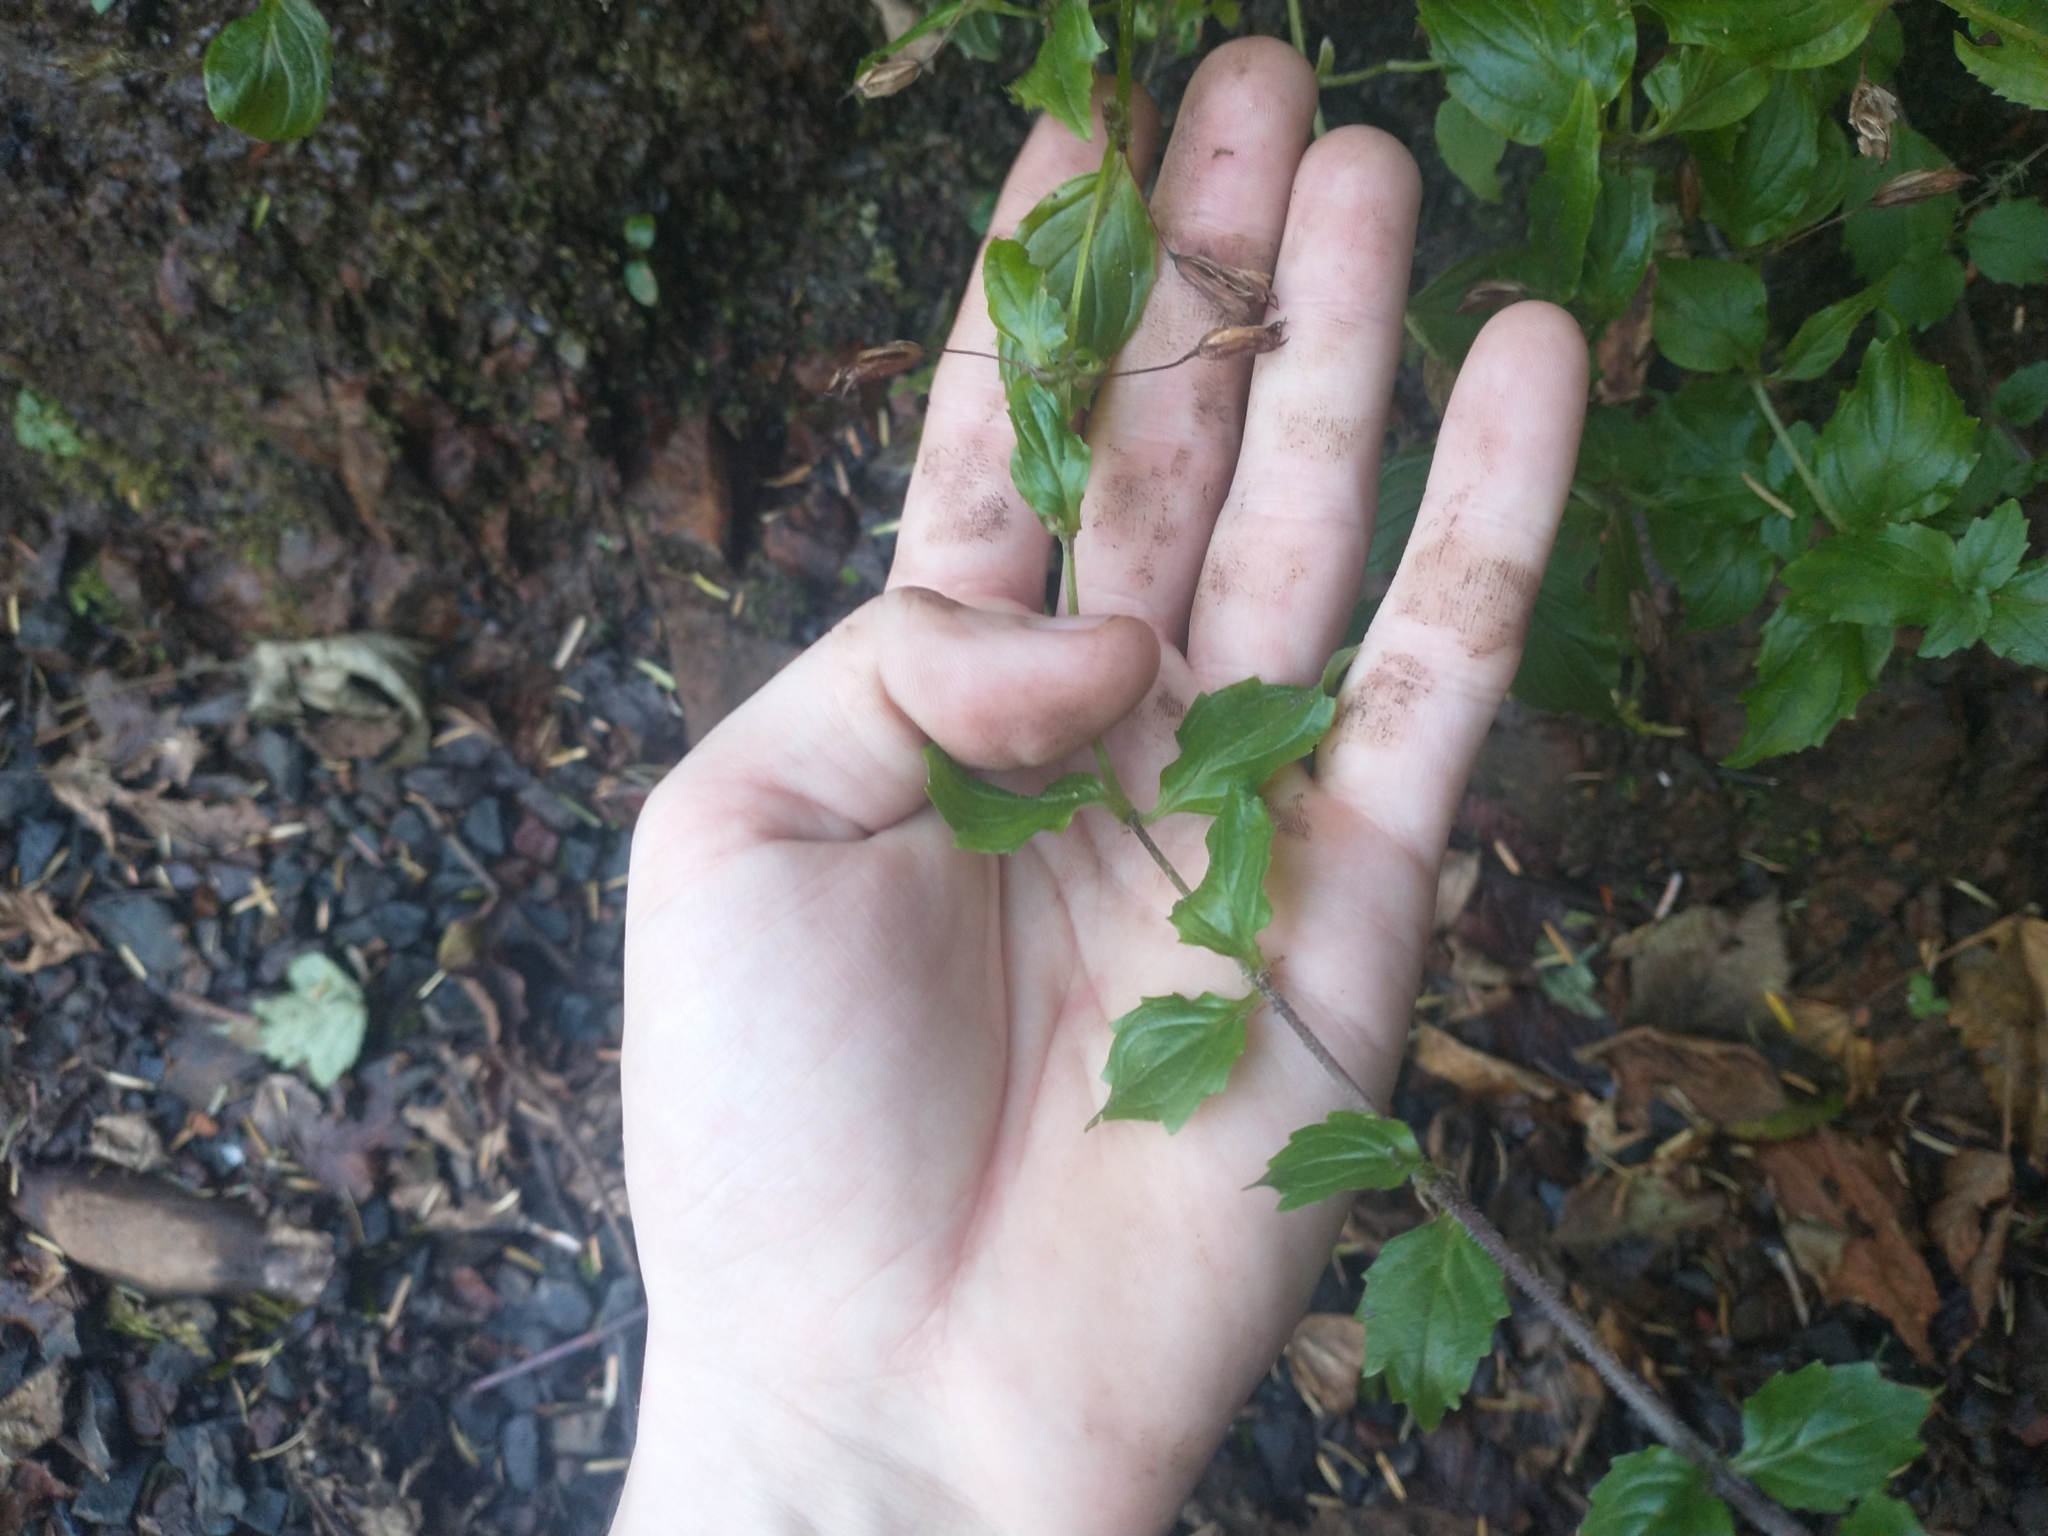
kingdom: Plantae
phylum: Tracheophyta
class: Magnoliopsida
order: Lamiales
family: Phrymaceae
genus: Erythranthe
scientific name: Erythranthe dentata
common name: Coastal monkeyflower
